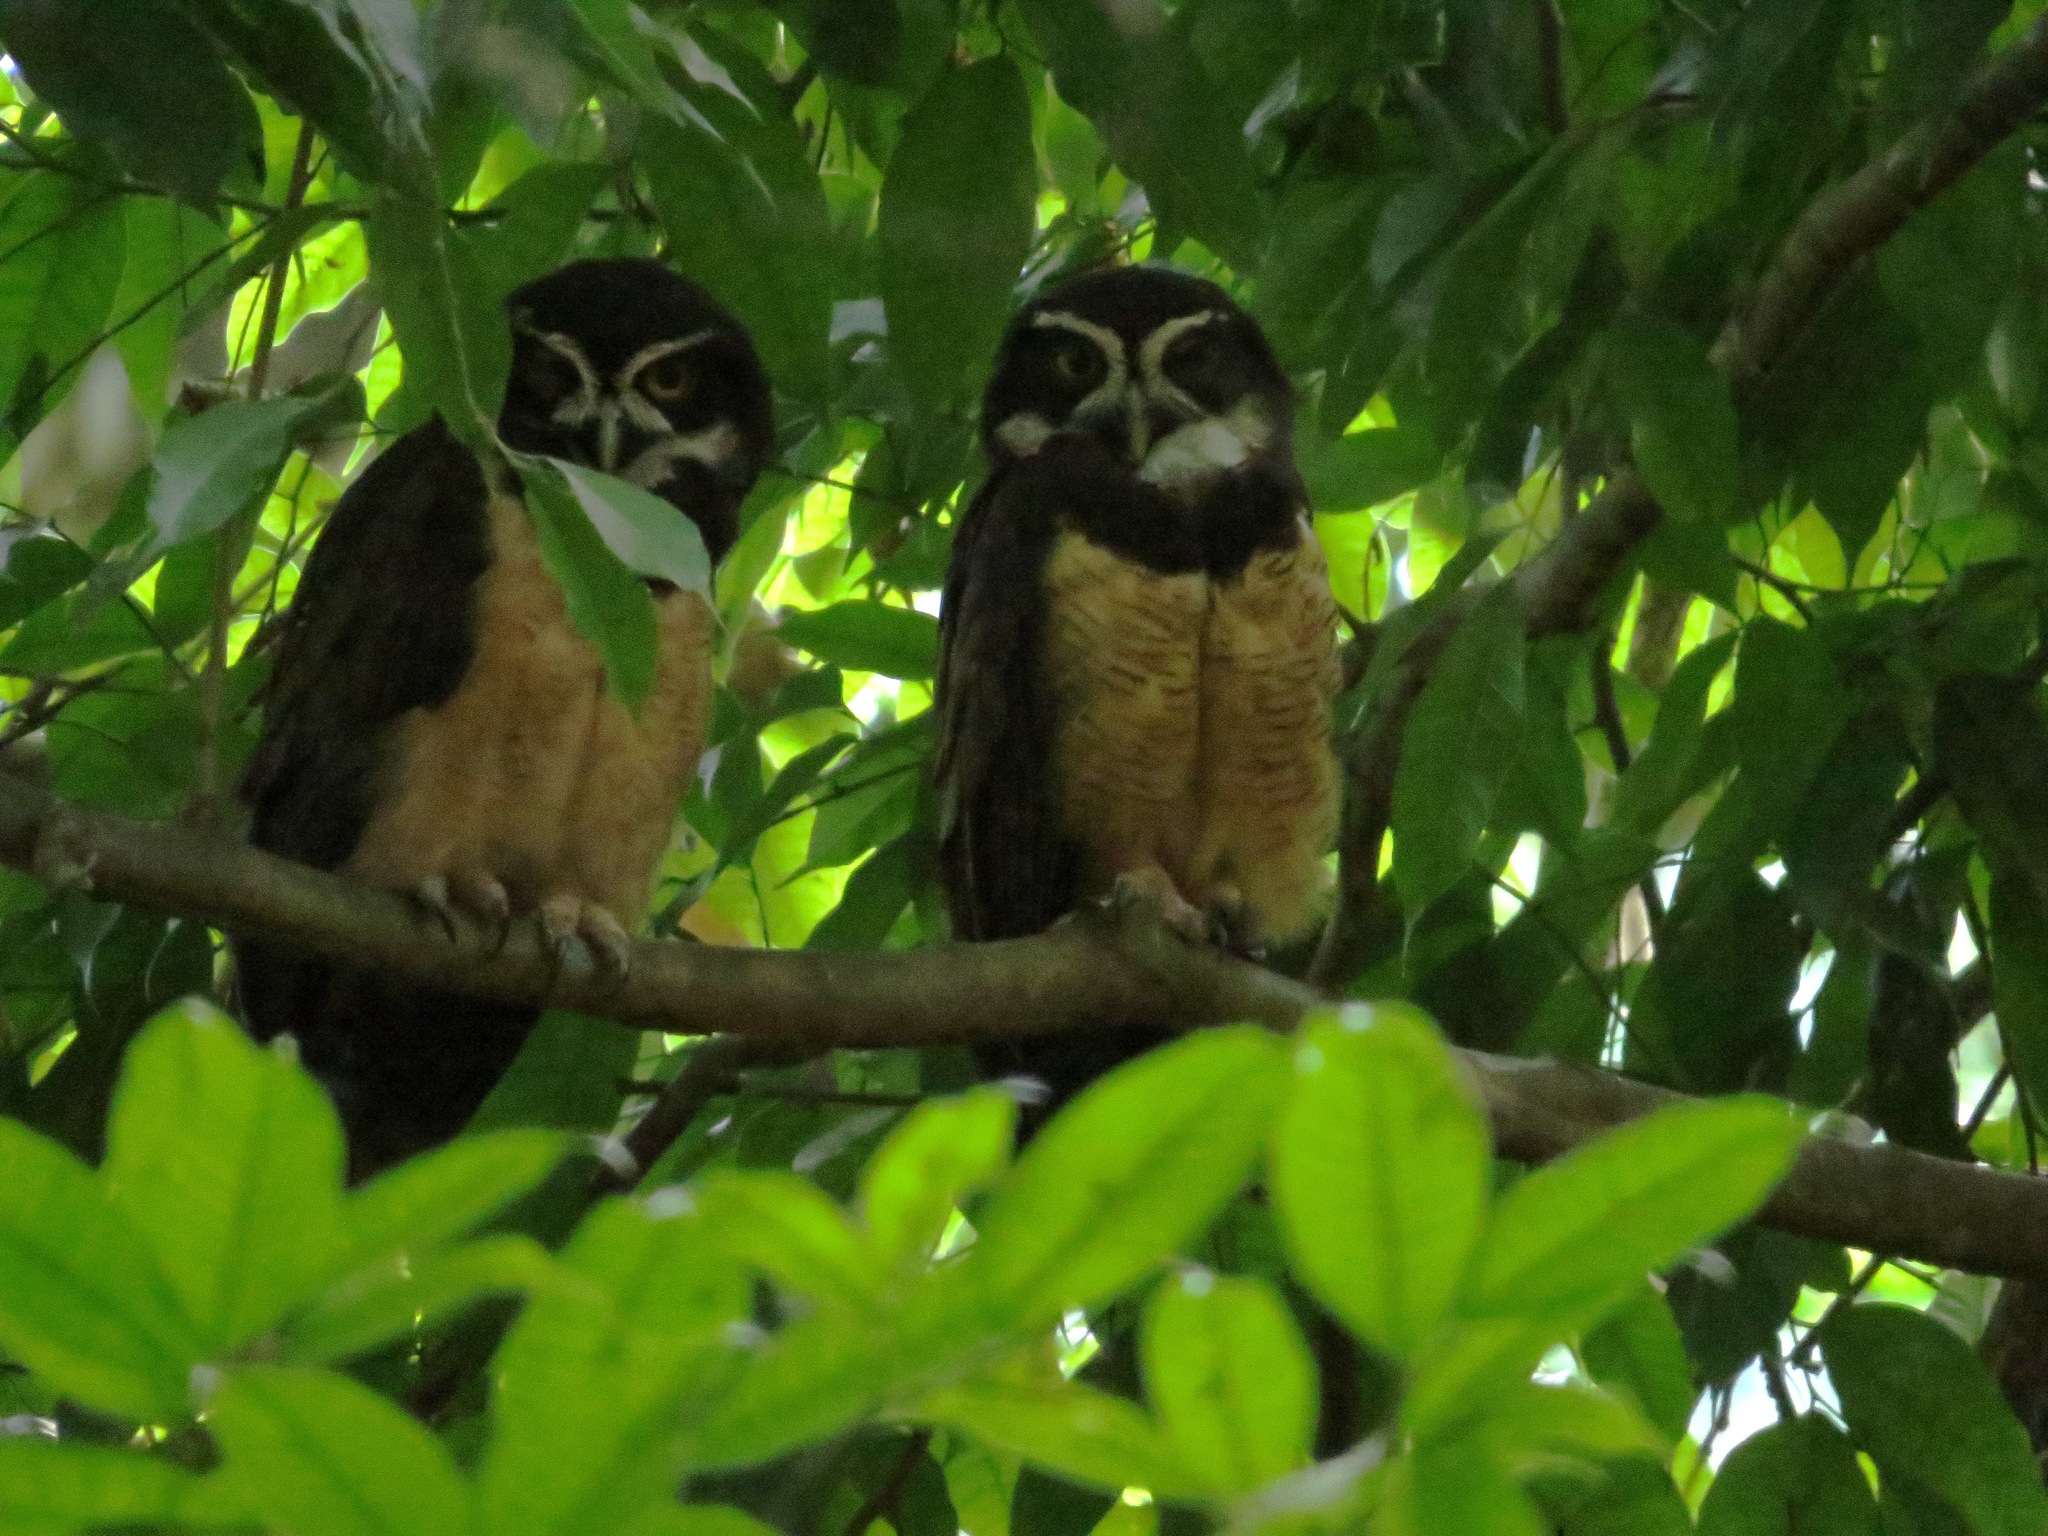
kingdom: Animalia
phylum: Chordata
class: Aves
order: Strigiformes
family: Strigidae
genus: Pulsatrix
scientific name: Pulsatrix perspicillata
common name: Spectacled owl
